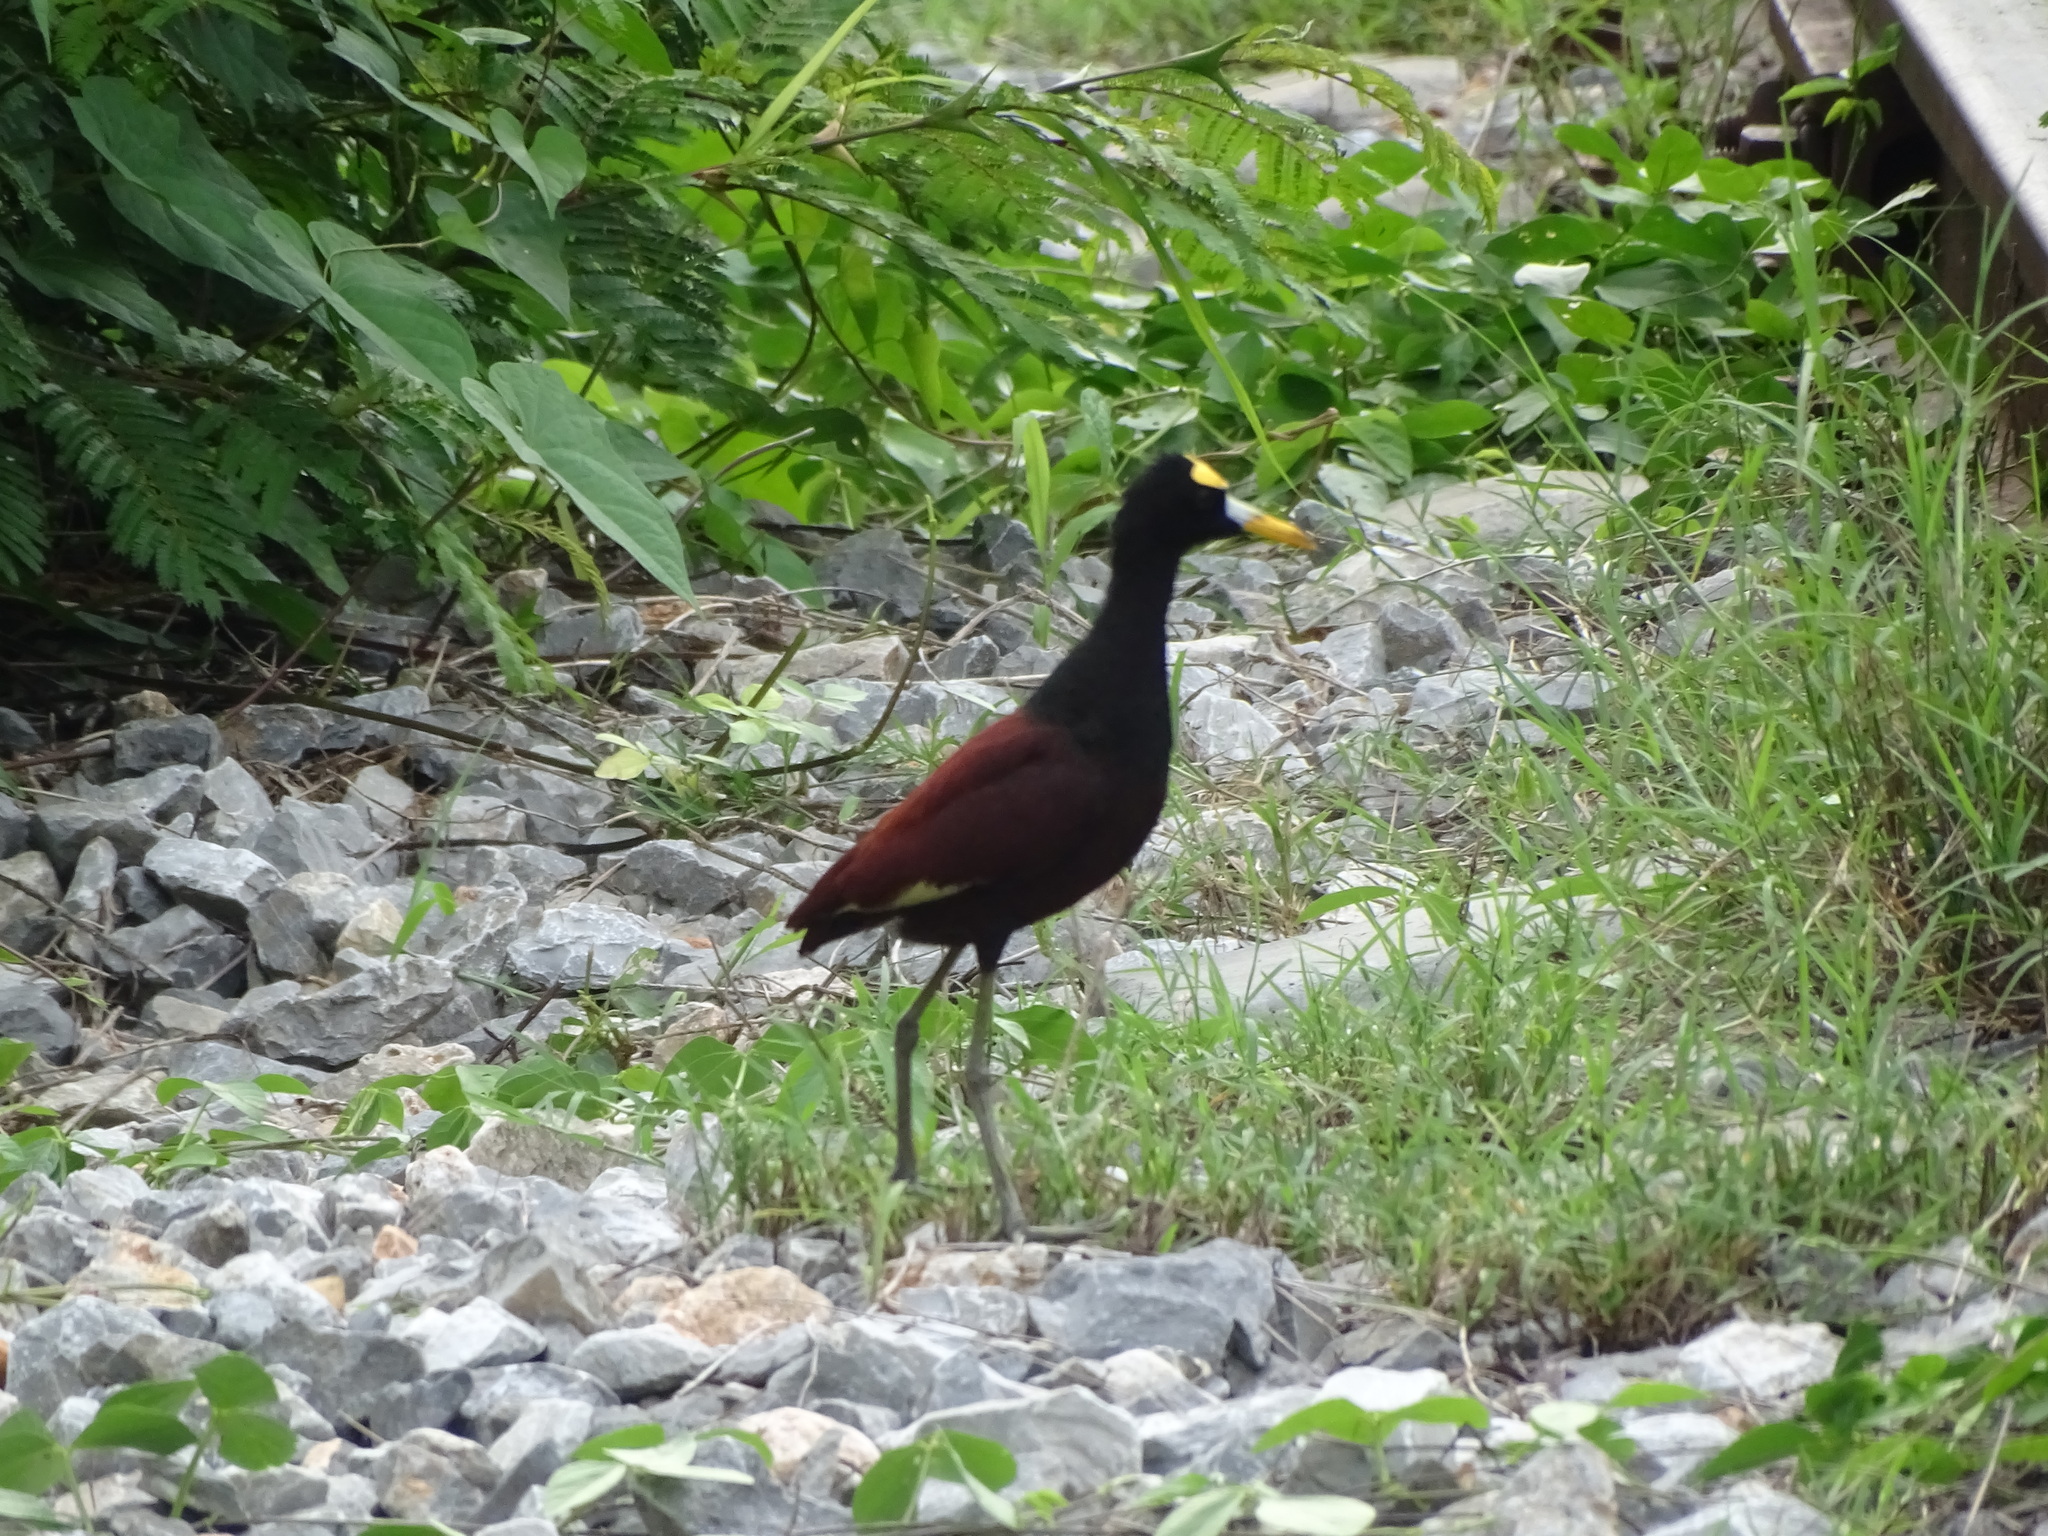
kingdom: Animalia
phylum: Chordata
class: Aves
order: Charadriiformes
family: Jacanidae
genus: Jacana
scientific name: Jacana spinosa
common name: Northern jacana
